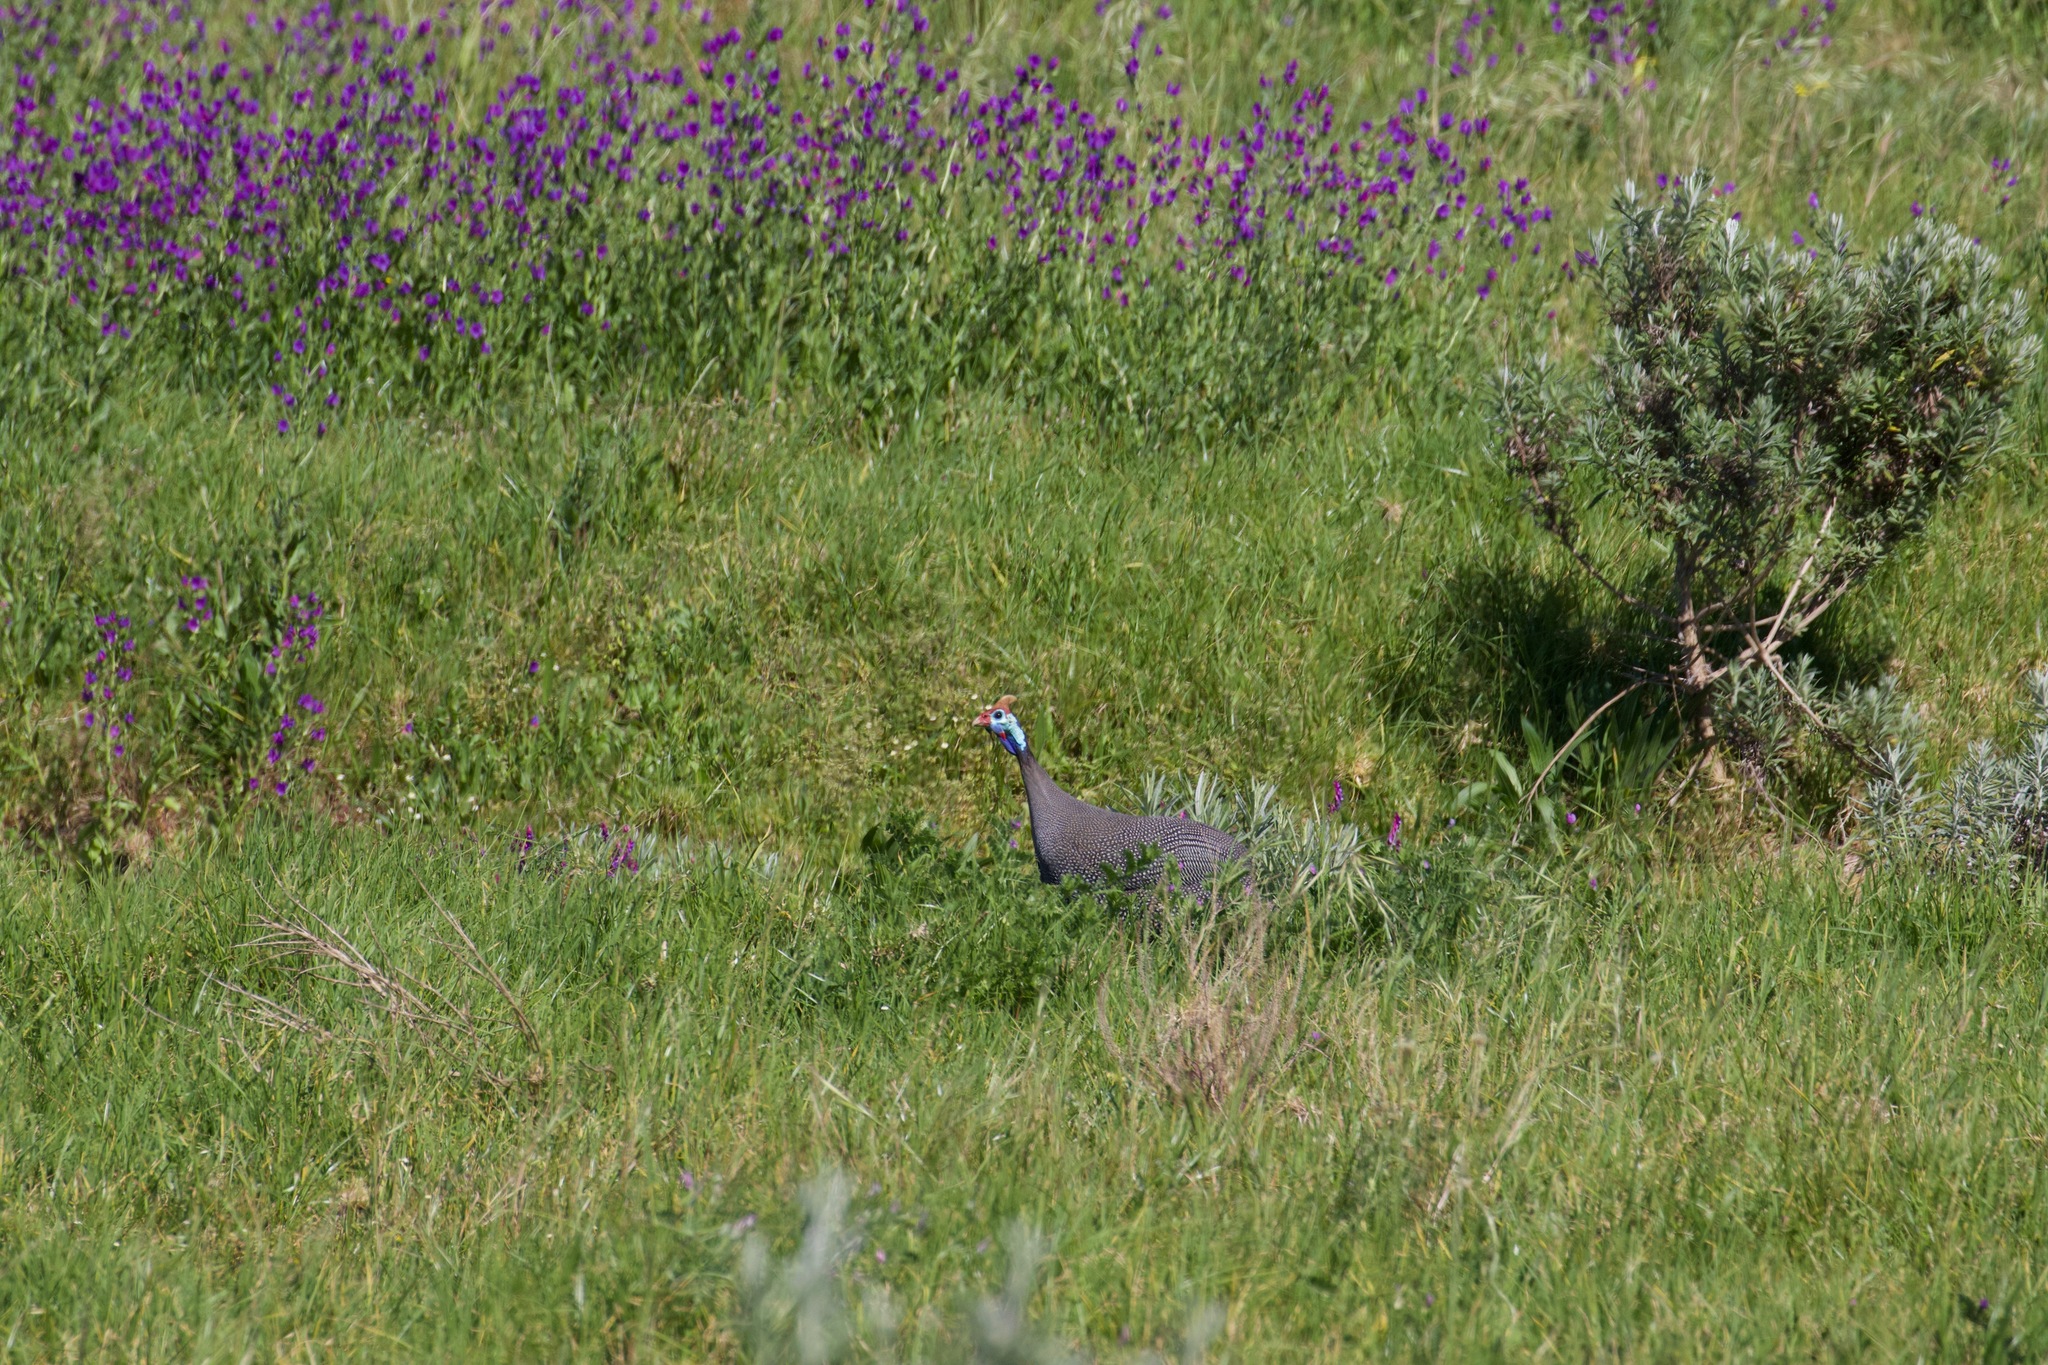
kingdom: Animalia
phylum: Chordata
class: Aves
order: Galliformes
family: Numididae
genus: Numida
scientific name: Numida meleagris
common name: Helmeted guineafowl
